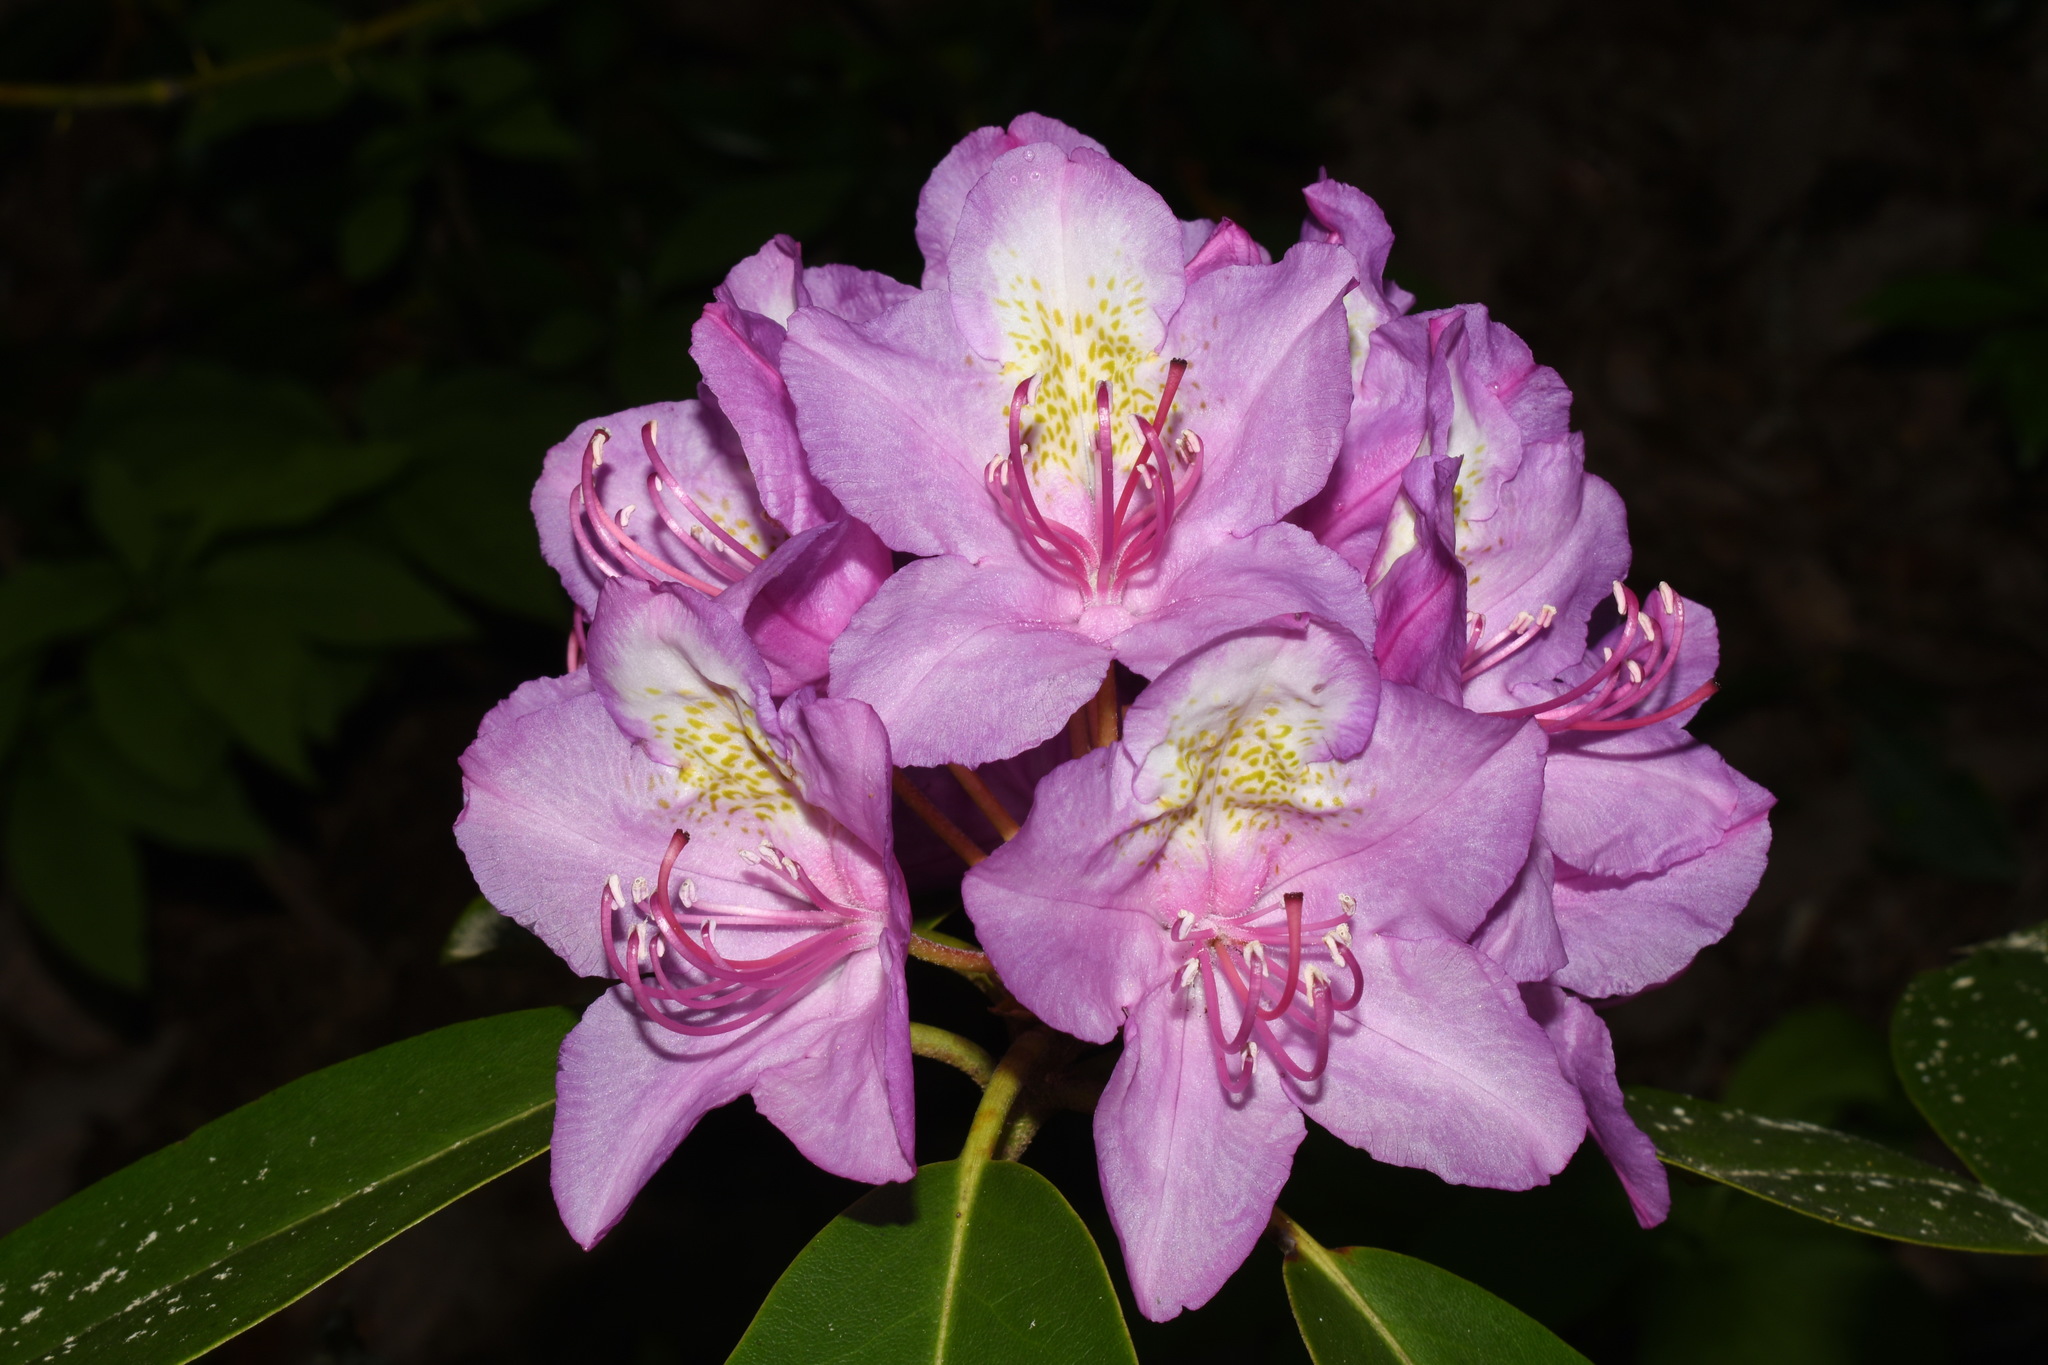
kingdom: Plantae
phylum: Tracheophyta
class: Magnoliopsida
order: Ericales
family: Ericaceae
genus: Rhododendron
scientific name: Rhododendron catawbiense
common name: Catawba rhododendron
